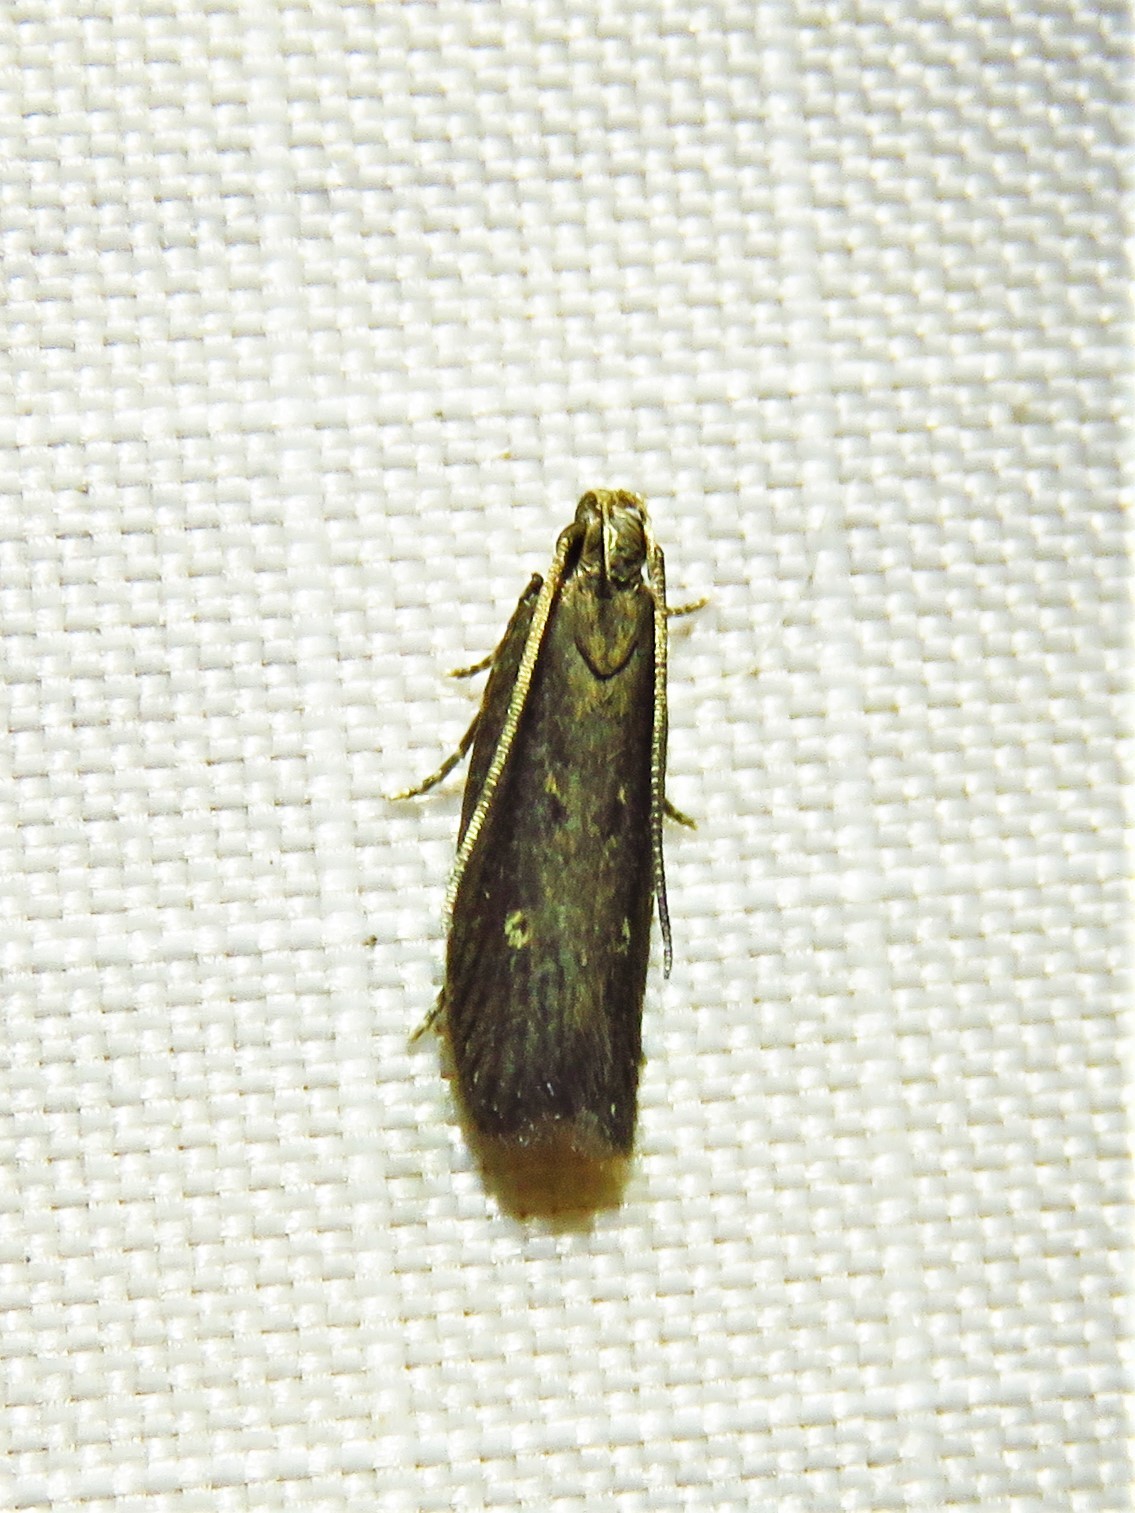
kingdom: Animalia
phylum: Arthropoda
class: Insecta
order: Lepidoptera
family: Gelechiidae
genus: Chionodes
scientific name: Chionodes discoocellella
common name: Eye-ringed chionodes moth
